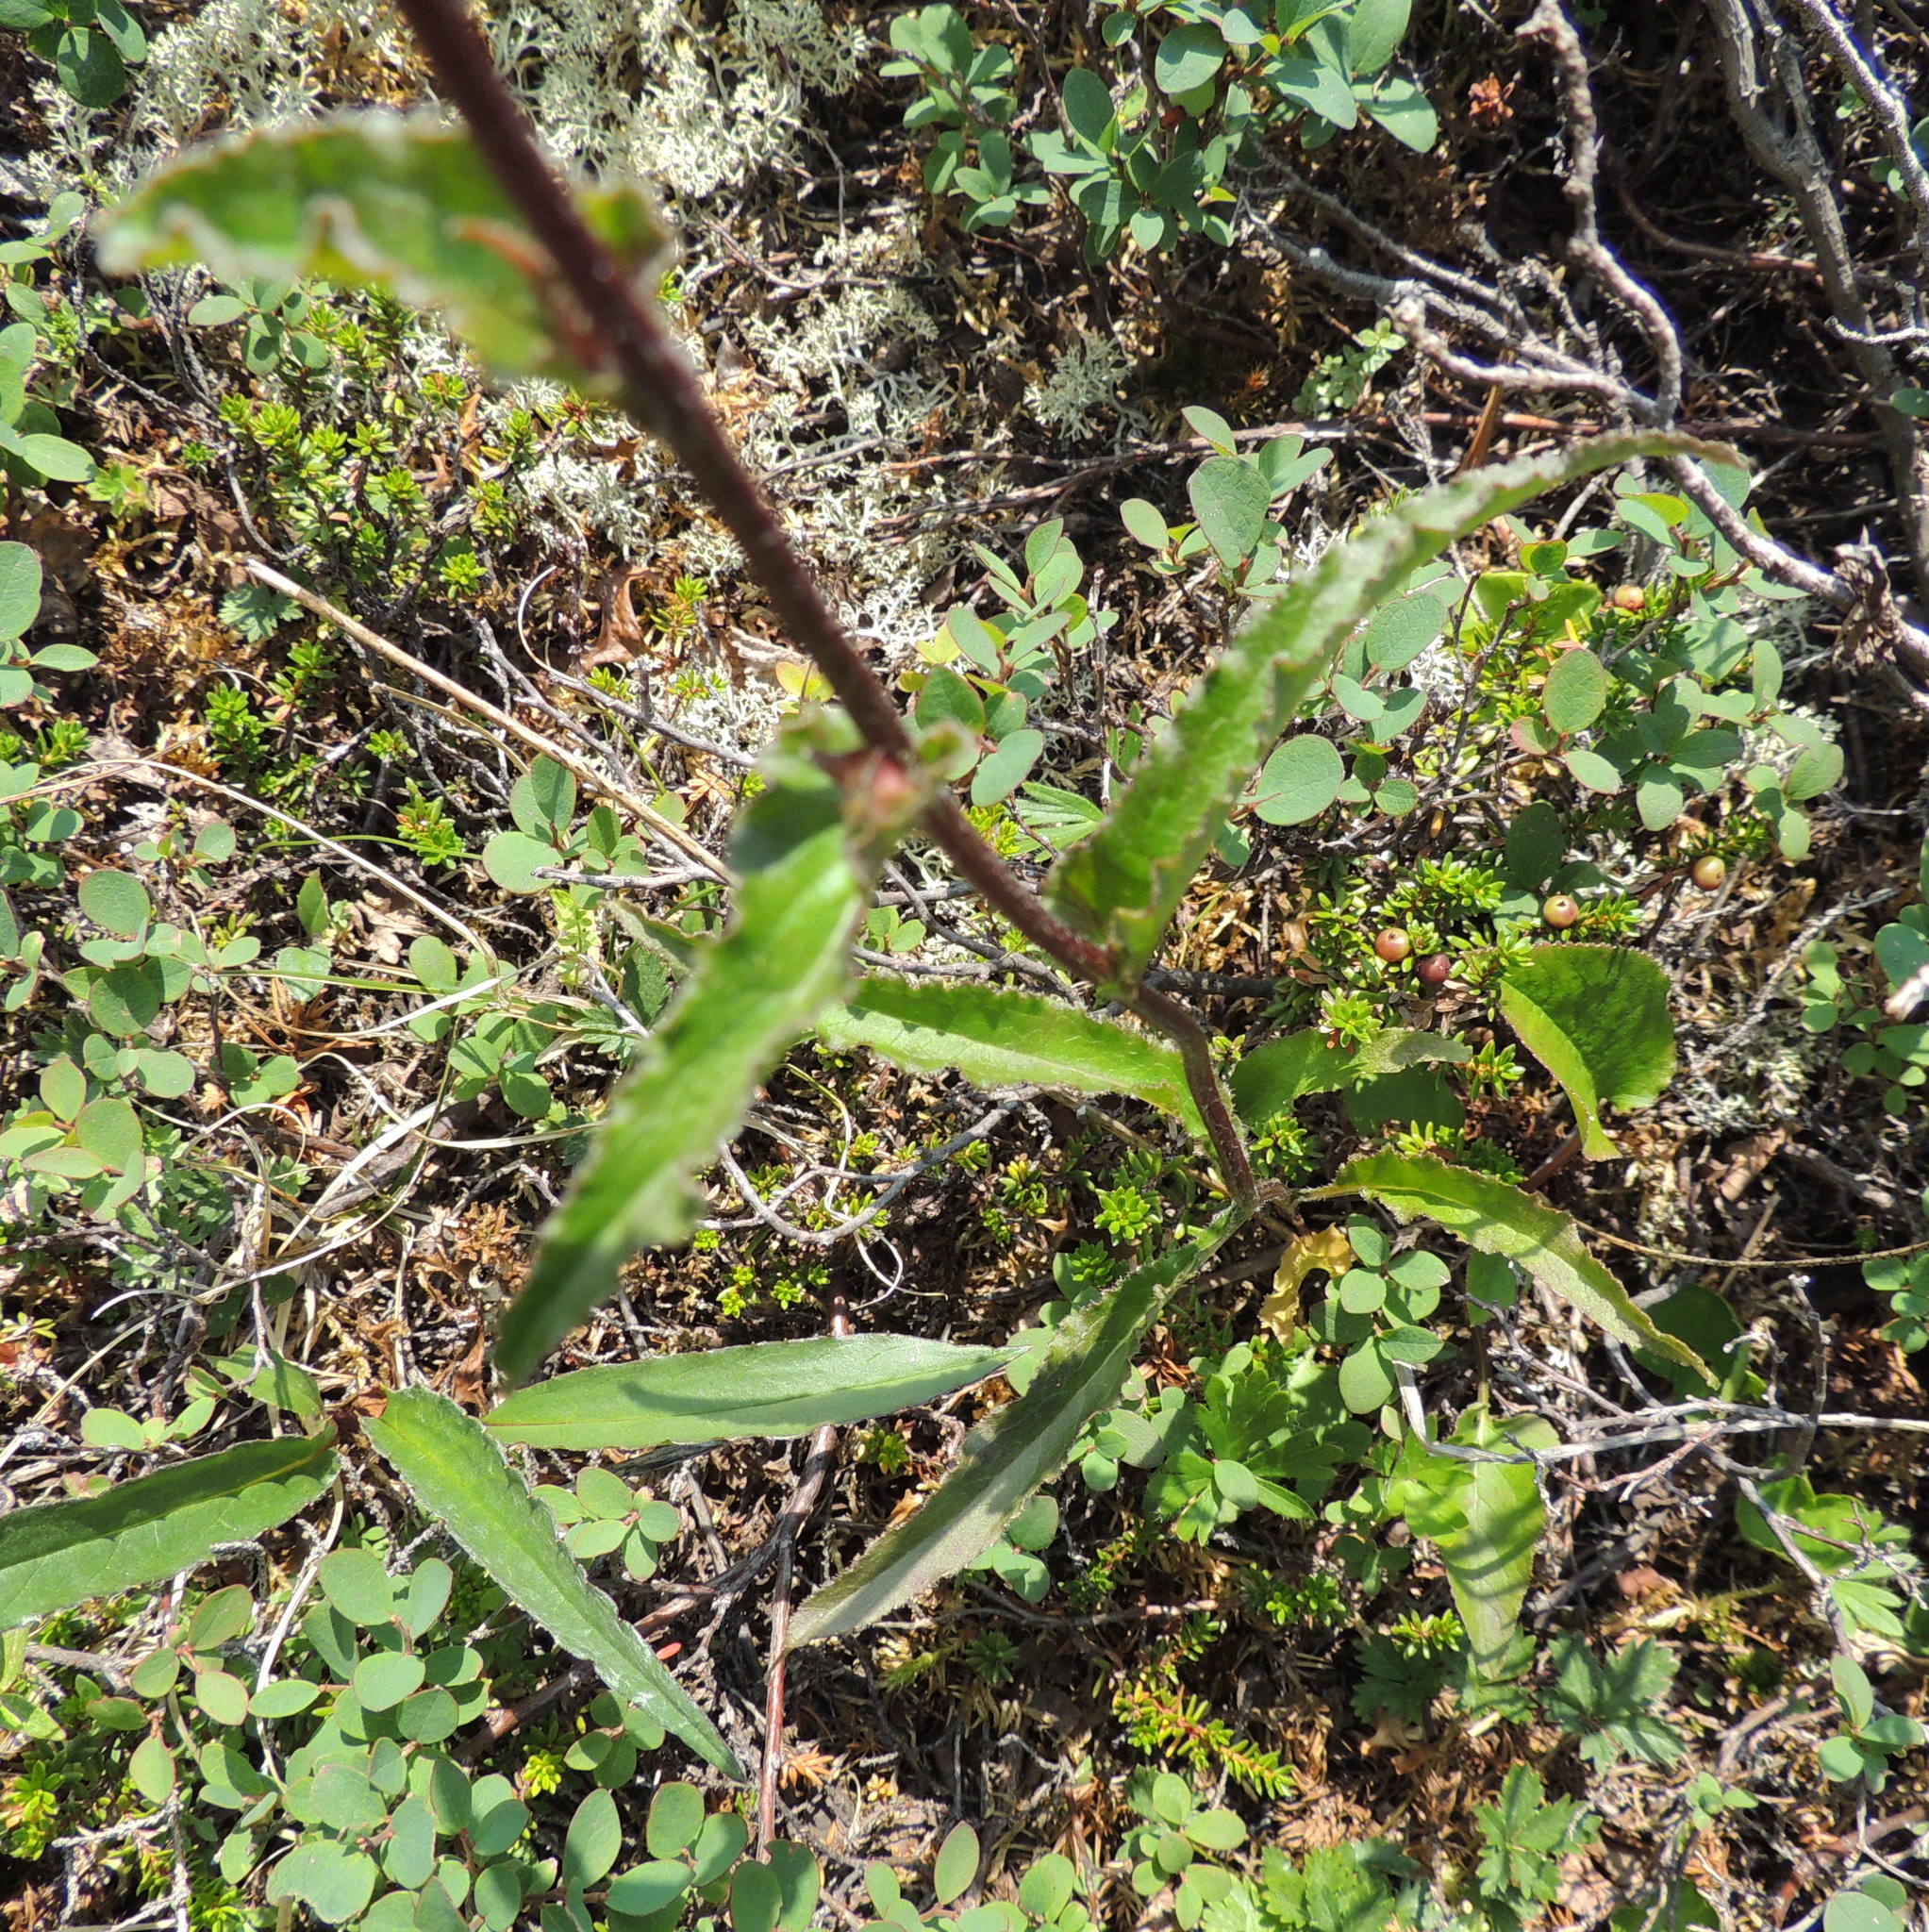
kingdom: Plantae
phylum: Tracheophyta
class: Magnoliopsida
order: Asterales
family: Campanulaceae
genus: Campanula
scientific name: Campanula glomerata
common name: Clustered bellflower
